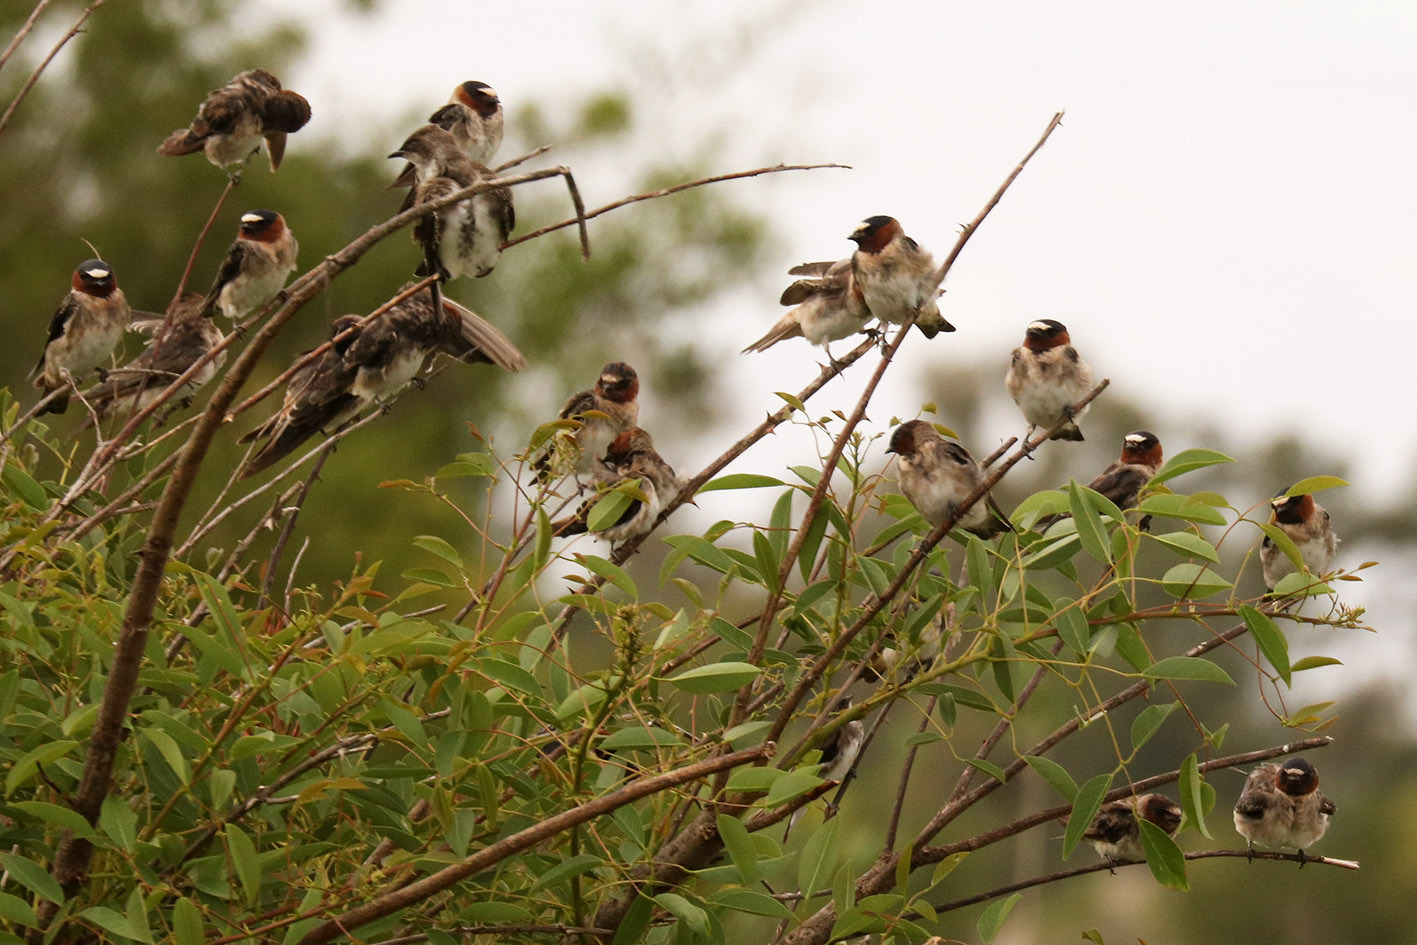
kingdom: Animalia
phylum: Chordata
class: Aves
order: Passeriformes
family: Hirundinidae
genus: Petrochelidon
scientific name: Petrochelidon pyrrhonota
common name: American cliff swallow
